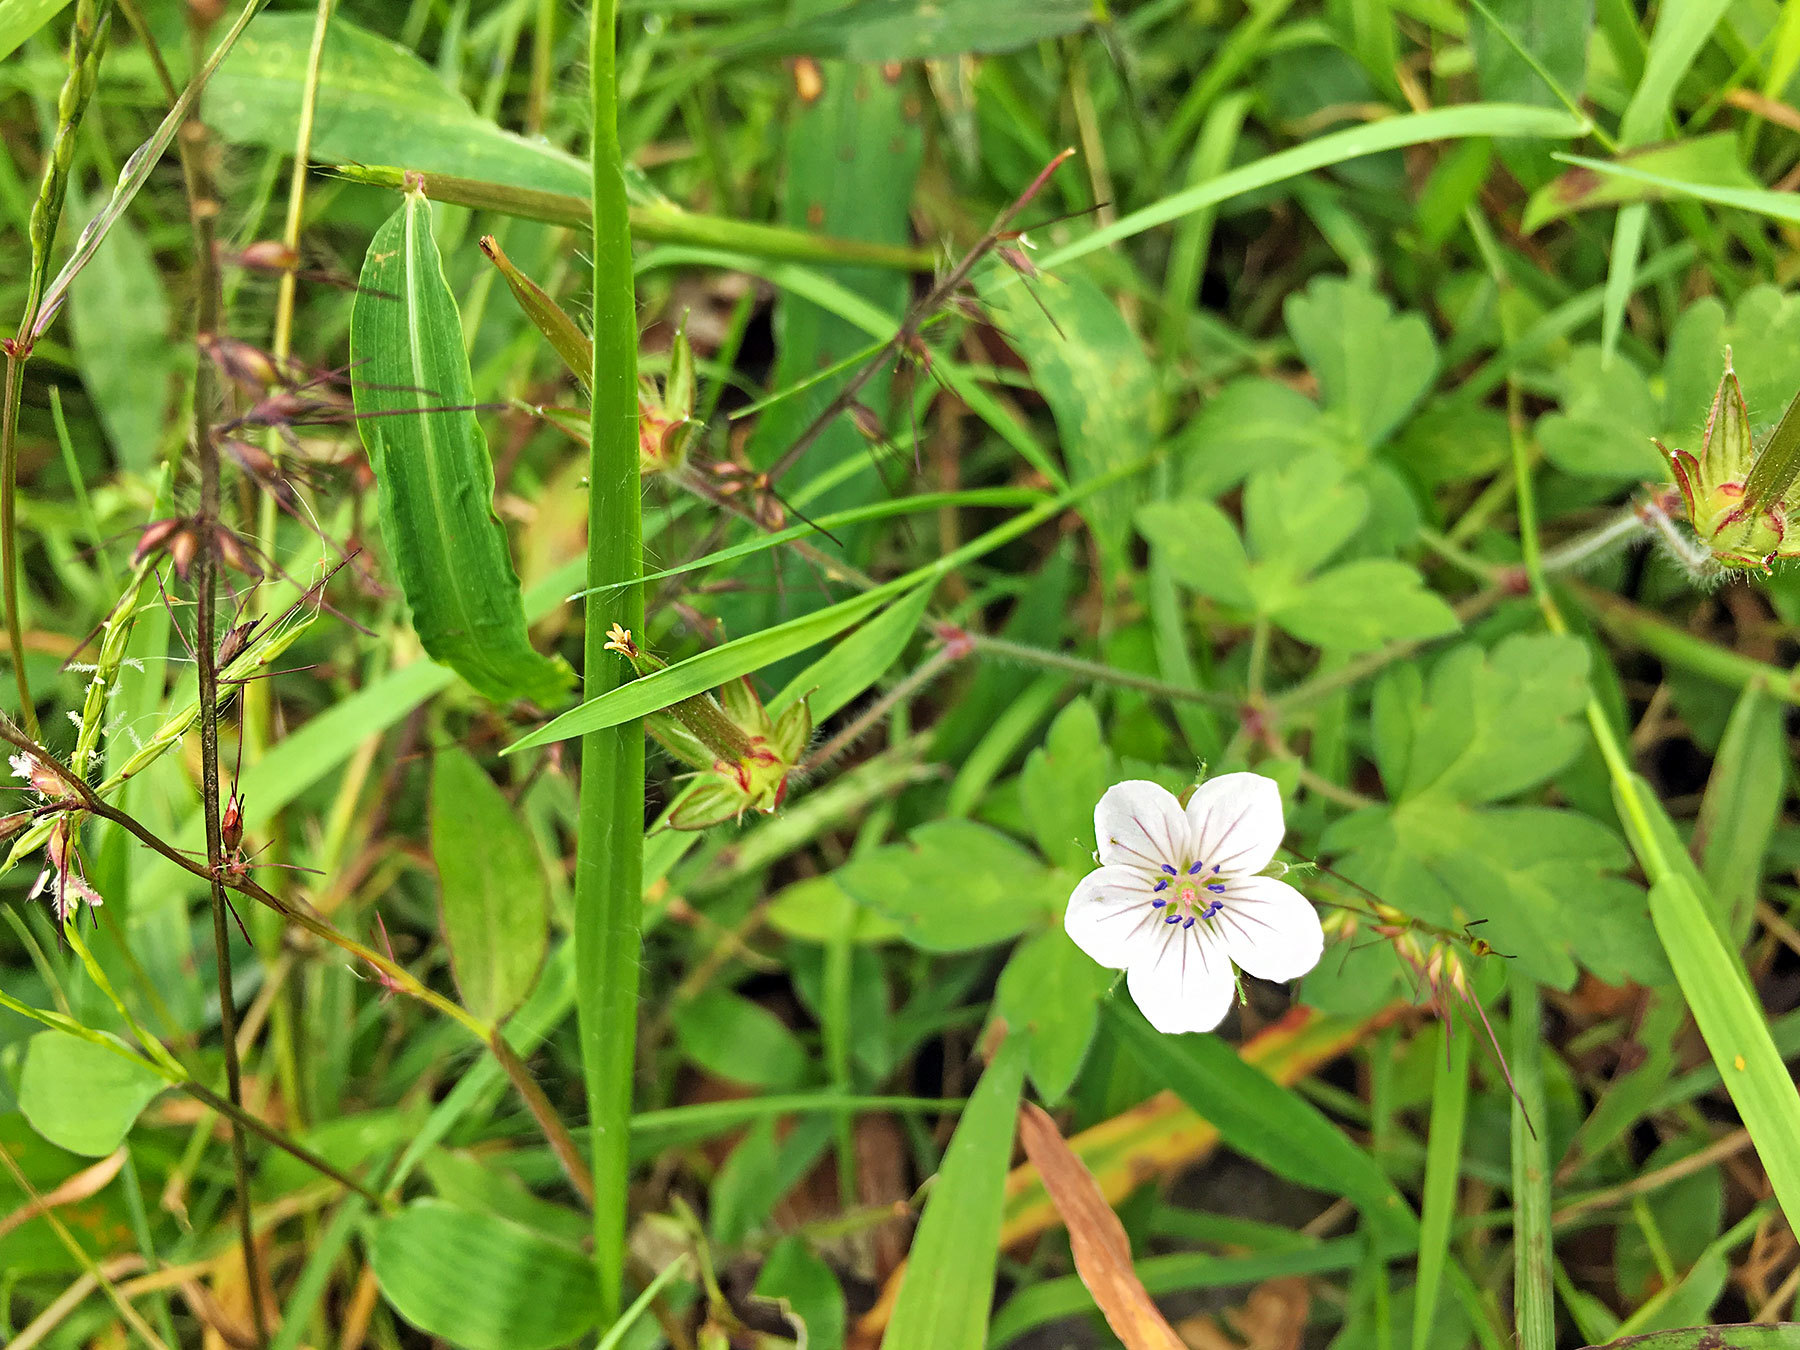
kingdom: Plantae
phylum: Tracheophyta
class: Magnoliopsida
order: Geraniales
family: Geraniaceae
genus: Geranium
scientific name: Geranium thunbergii
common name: Dewdrop crane's-bill
